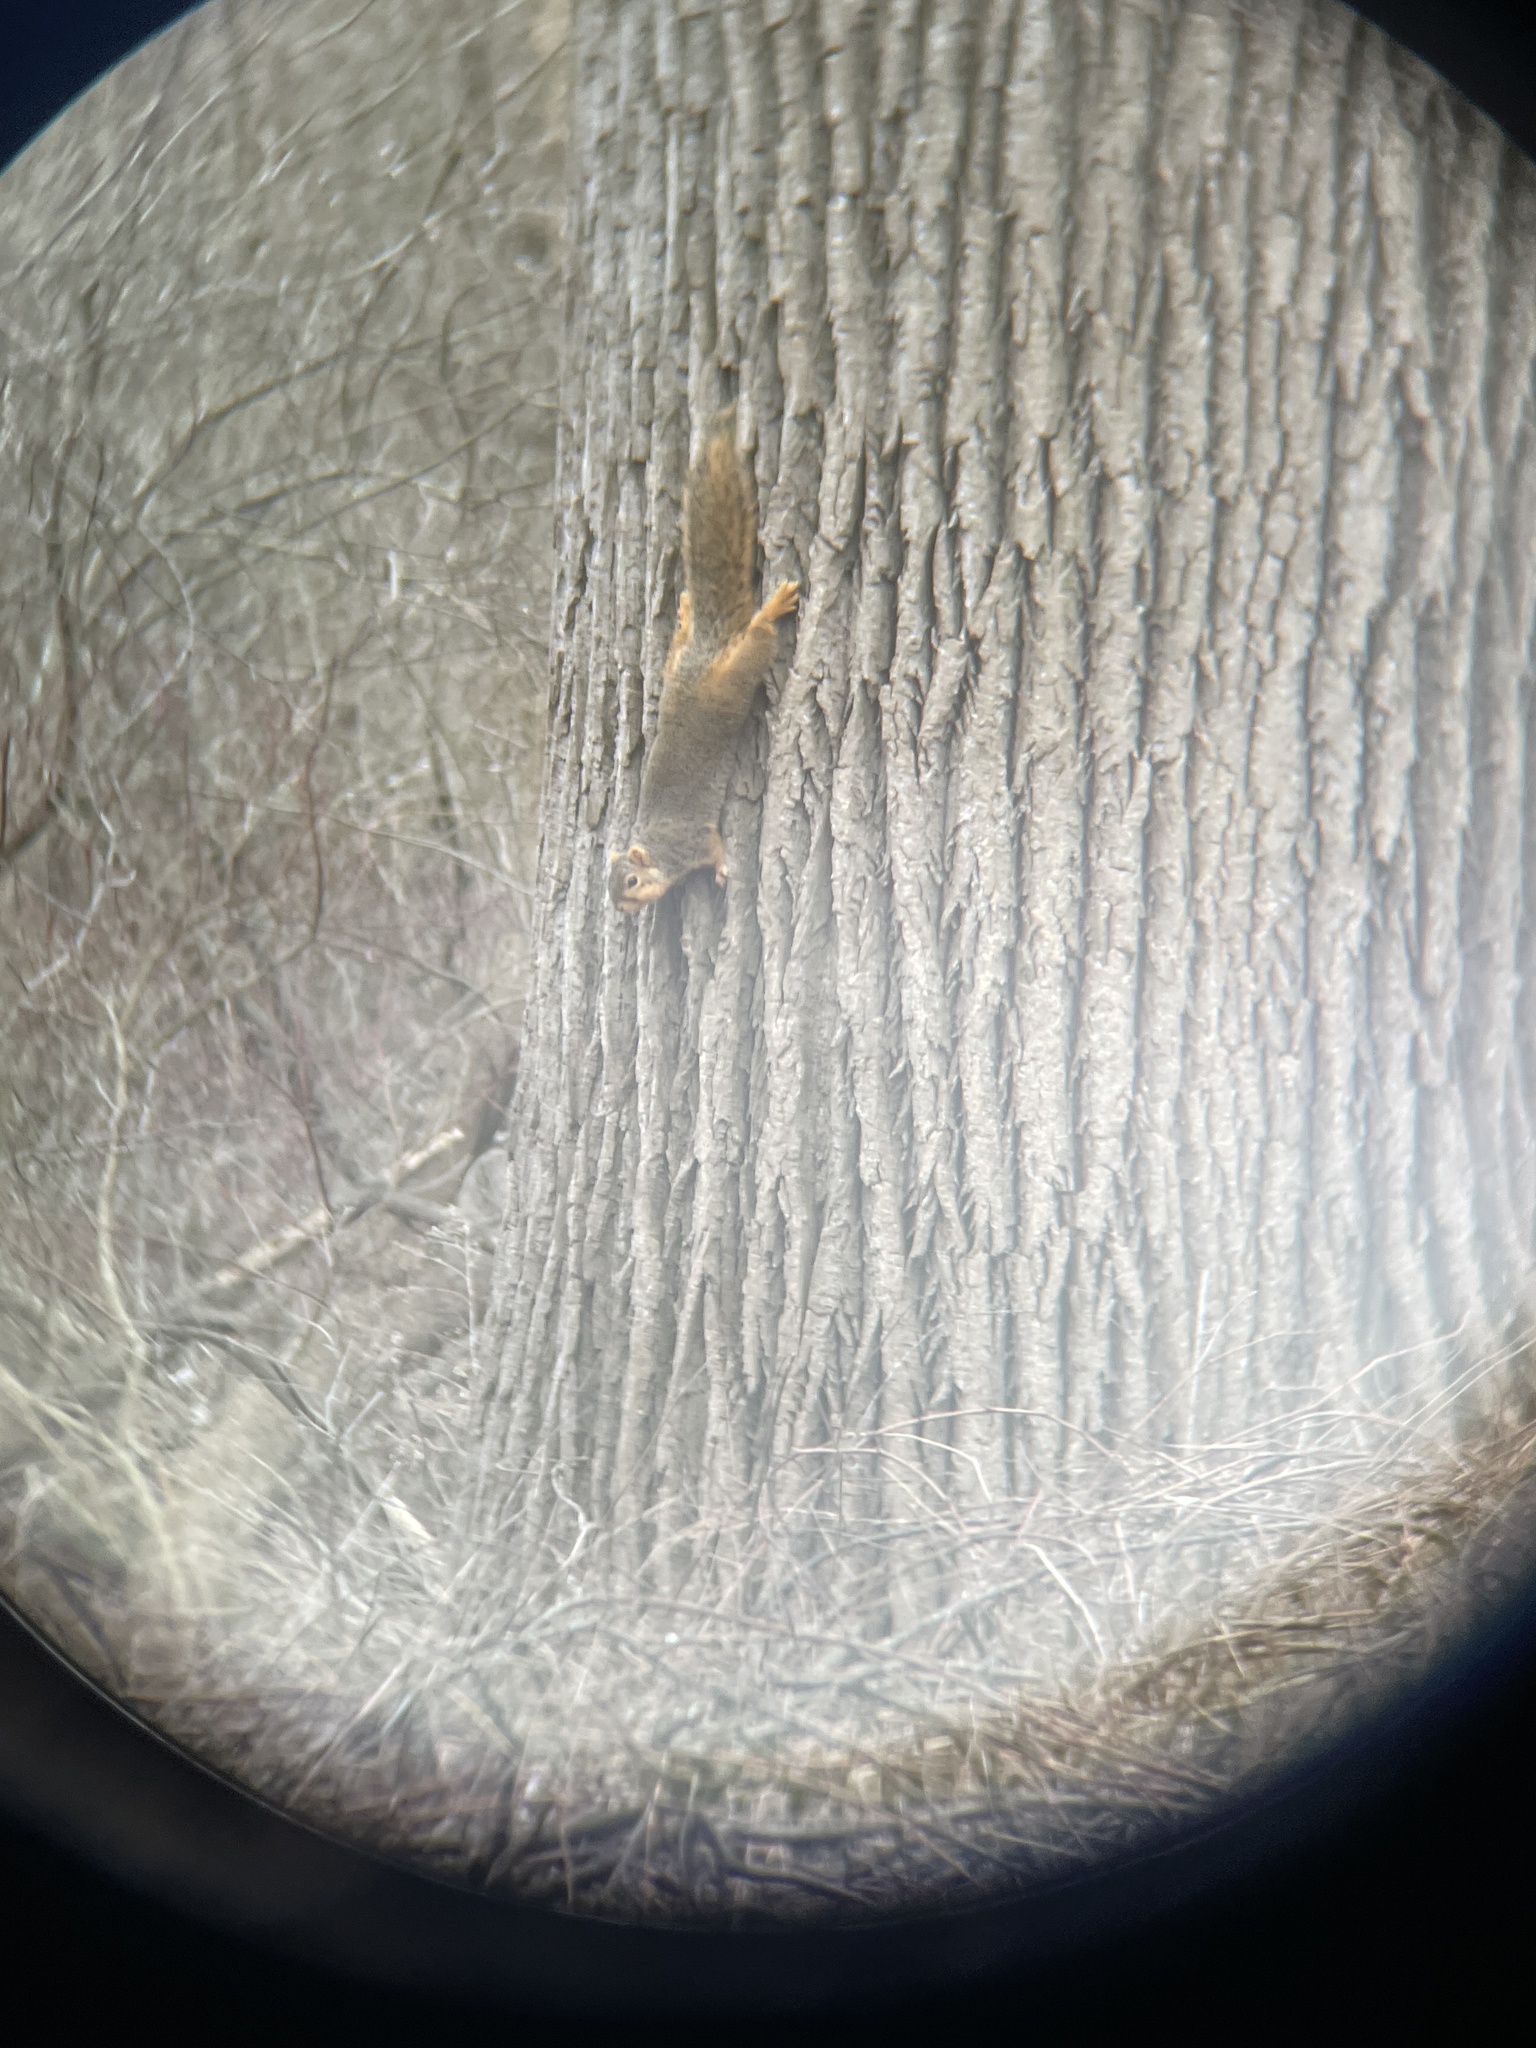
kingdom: Animalia
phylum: Chordata
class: Mammalia
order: Rodentia
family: Sciuridae
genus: Sciurus
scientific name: Sciurus niger
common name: Fox squirrel
